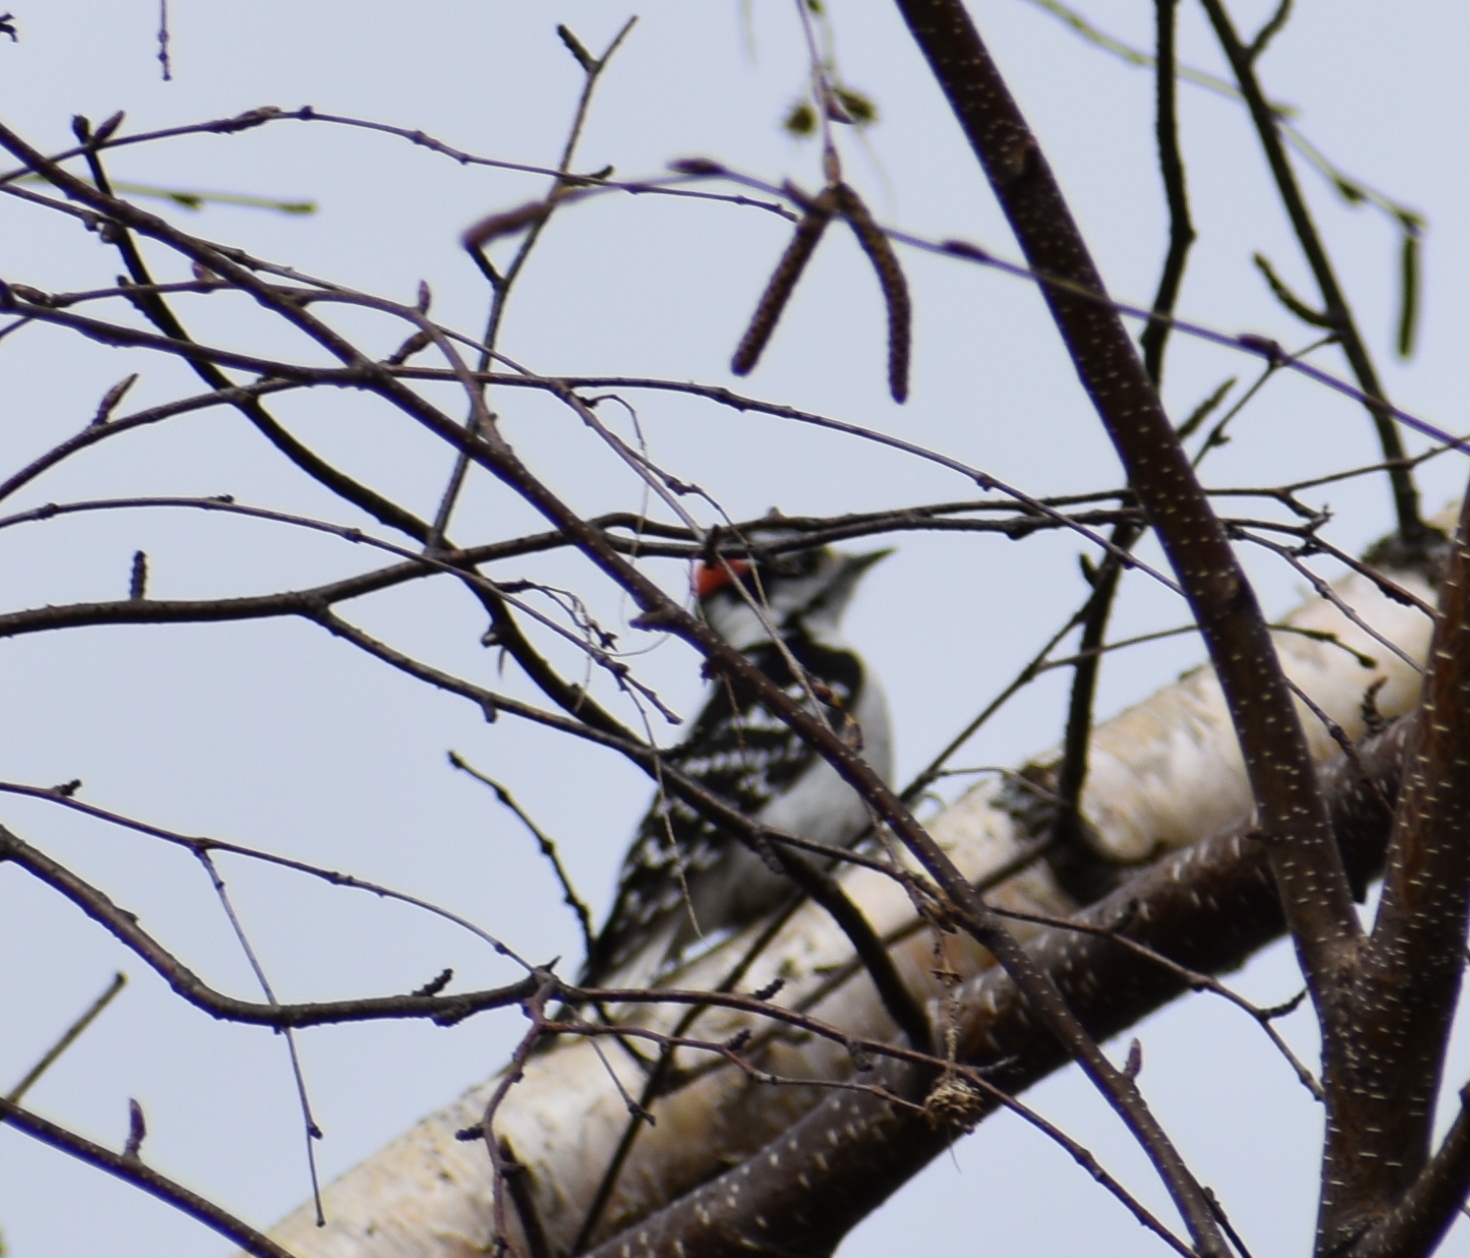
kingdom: Animalia
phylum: Chordata
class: Aves
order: Piciformes
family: Picidae
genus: Dryobates
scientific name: Dryobates pubescens
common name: Downy woodpecker
